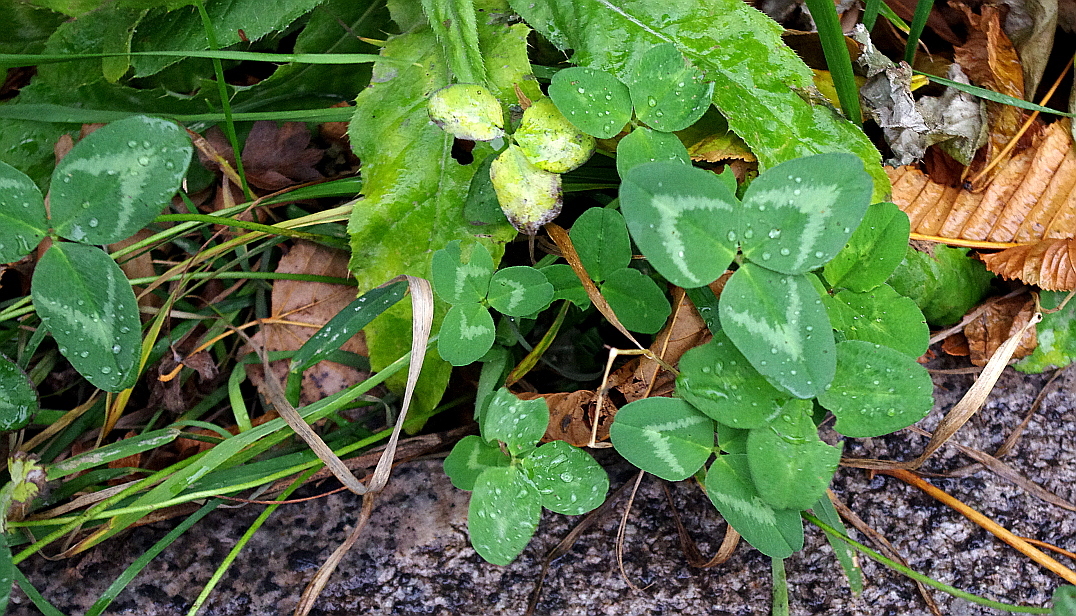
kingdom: Plantae
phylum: Tracheophyta
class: Magnoliopsida
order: Fabales
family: Fabaceae
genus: Trifolium
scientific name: Trifolium pratense
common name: Red clover
